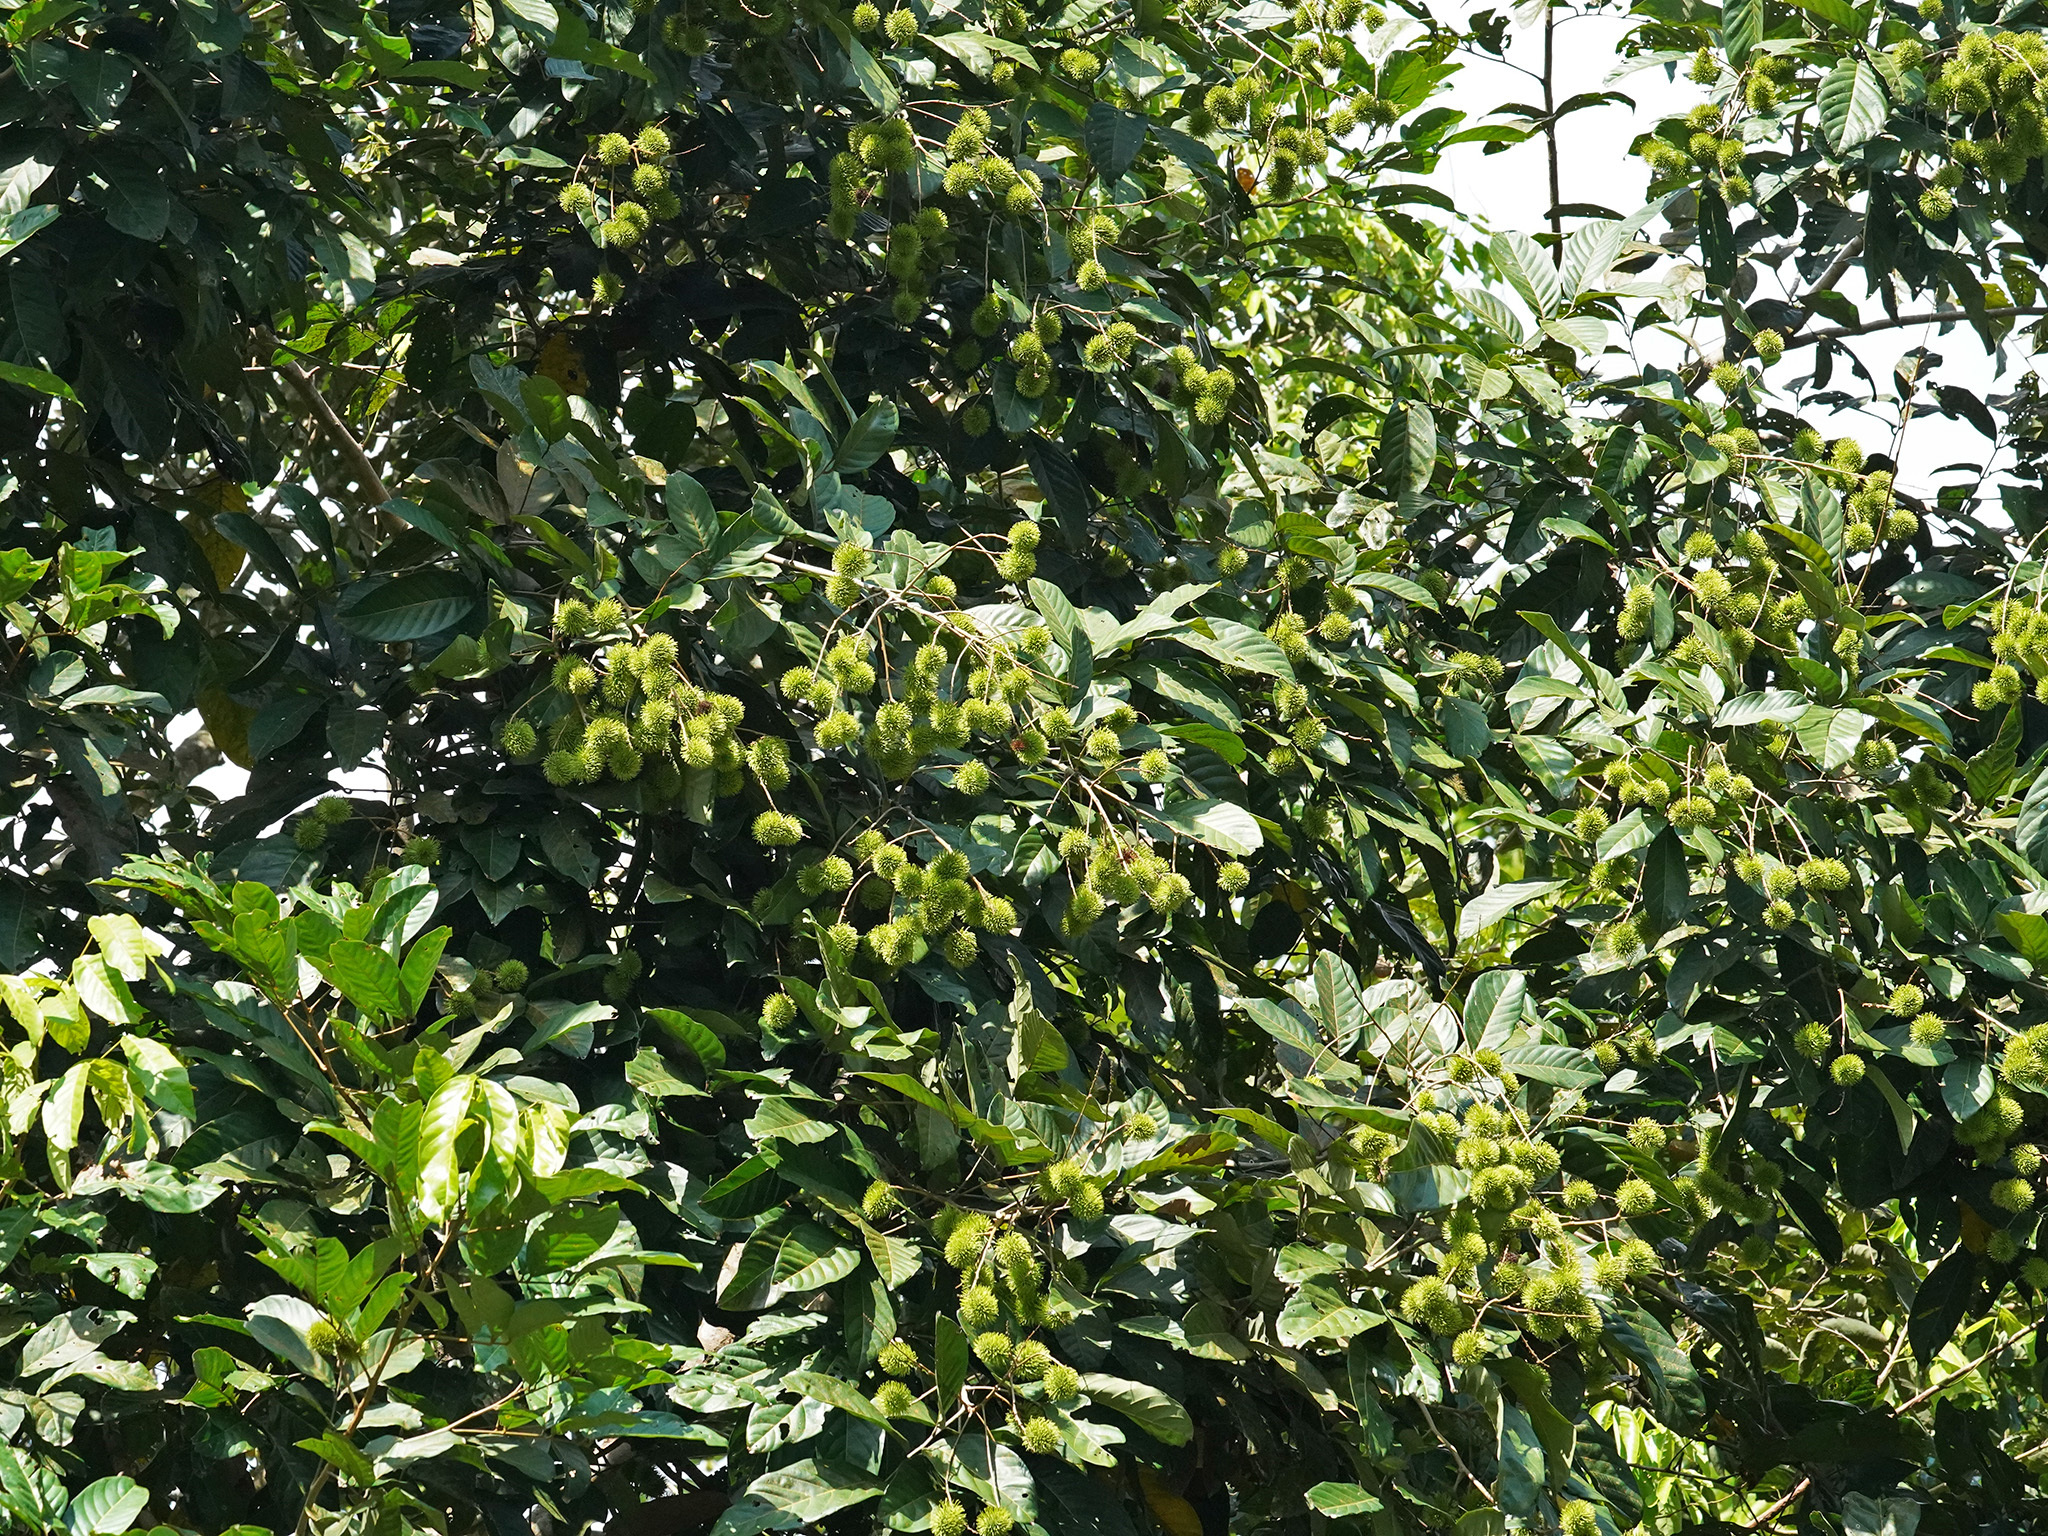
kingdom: Plantae
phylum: Tracheophyta
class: Magnoliopsida
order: Sapindales
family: Sapindaceae
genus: Nephelium
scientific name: Nephelium lappaceum
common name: Rambutan
